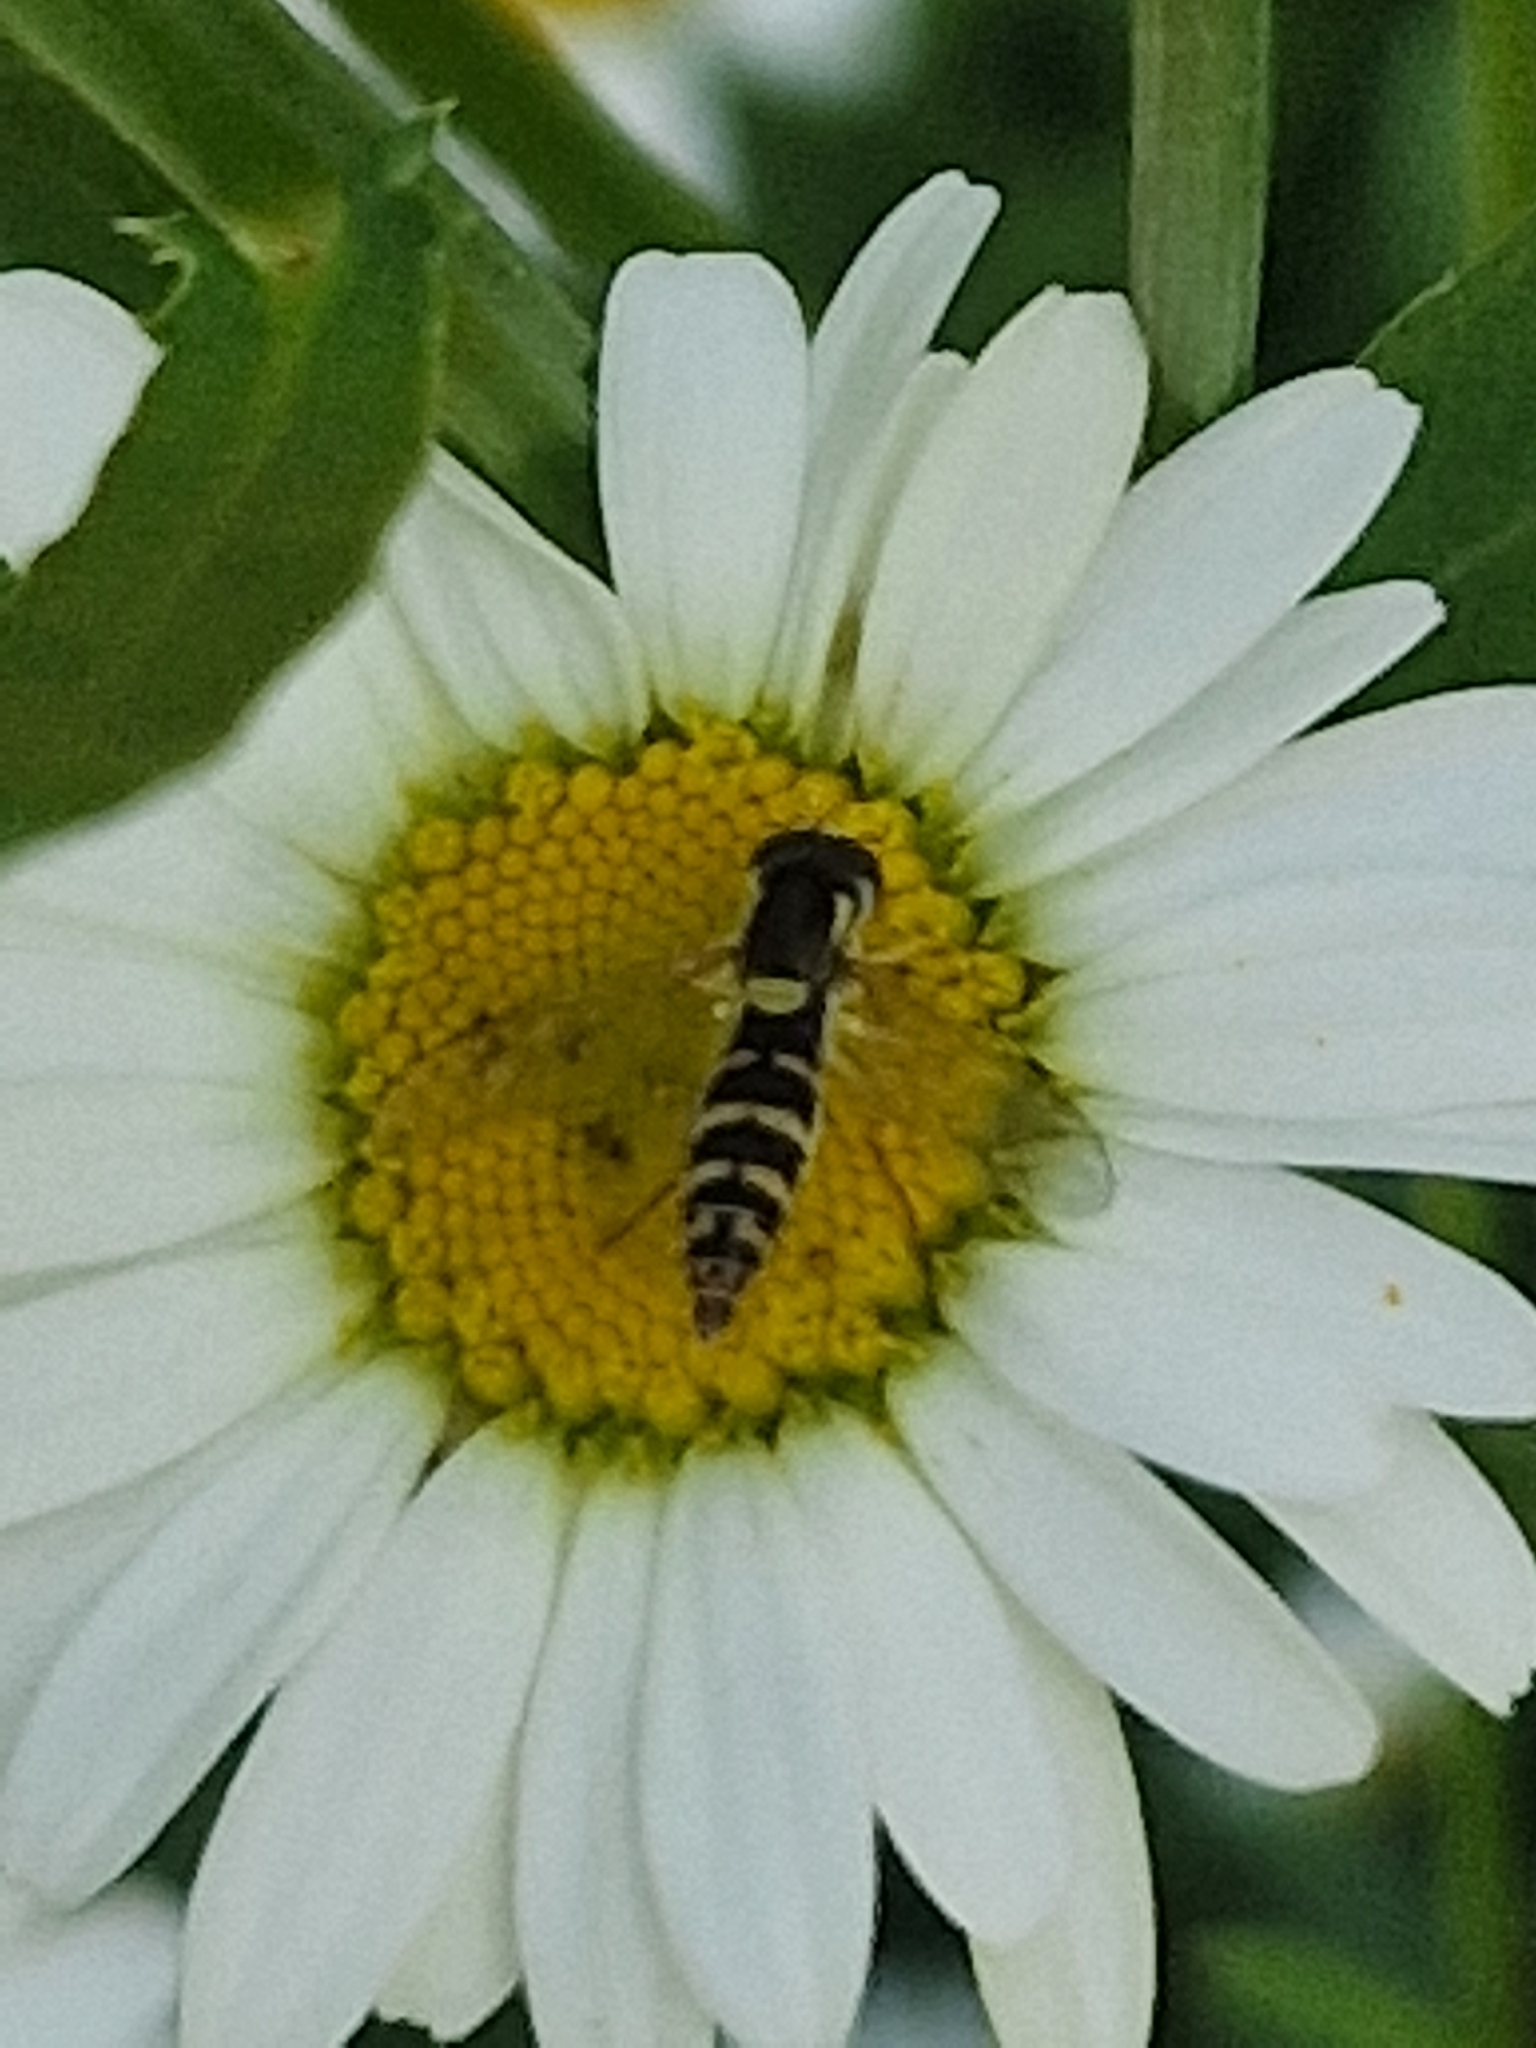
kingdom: Animalia
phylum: Arthropoda
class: Insecta
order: Diptera
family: Syrphidae
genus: Sphaerophoria
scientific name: Sphaerophoria
